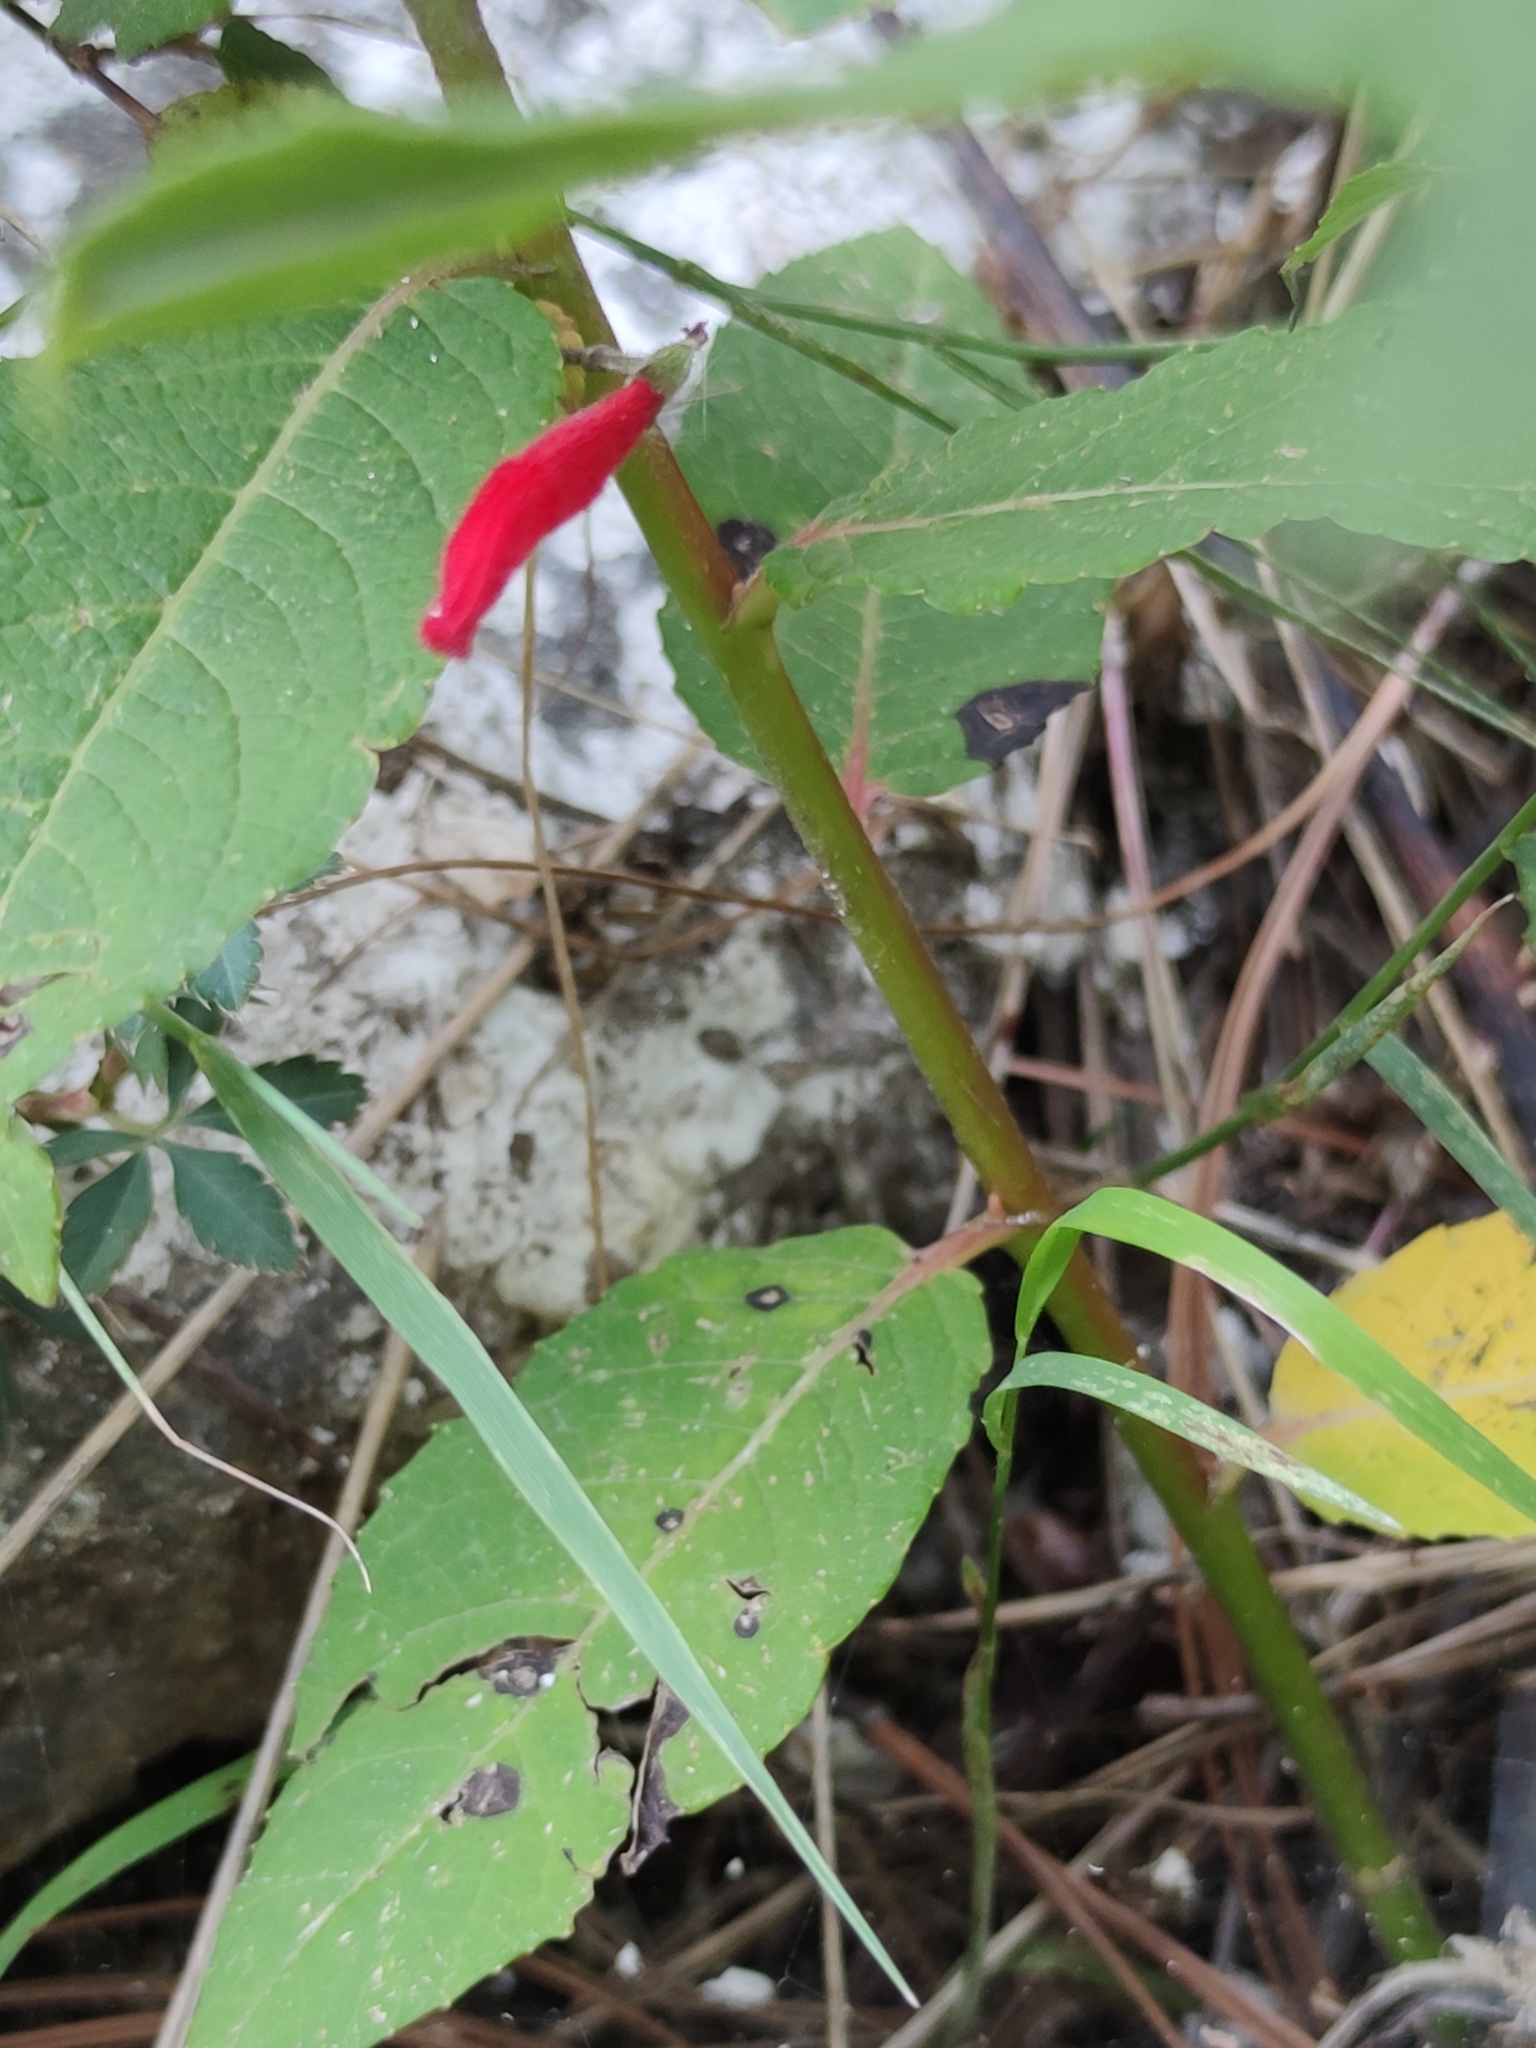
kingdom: Plantae
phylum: Tracheophyta
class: Magnoliopsida
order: Lamiales
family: Lamiaceae
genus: Salvia
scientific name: Salvia elegans
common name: Pineapple sage
